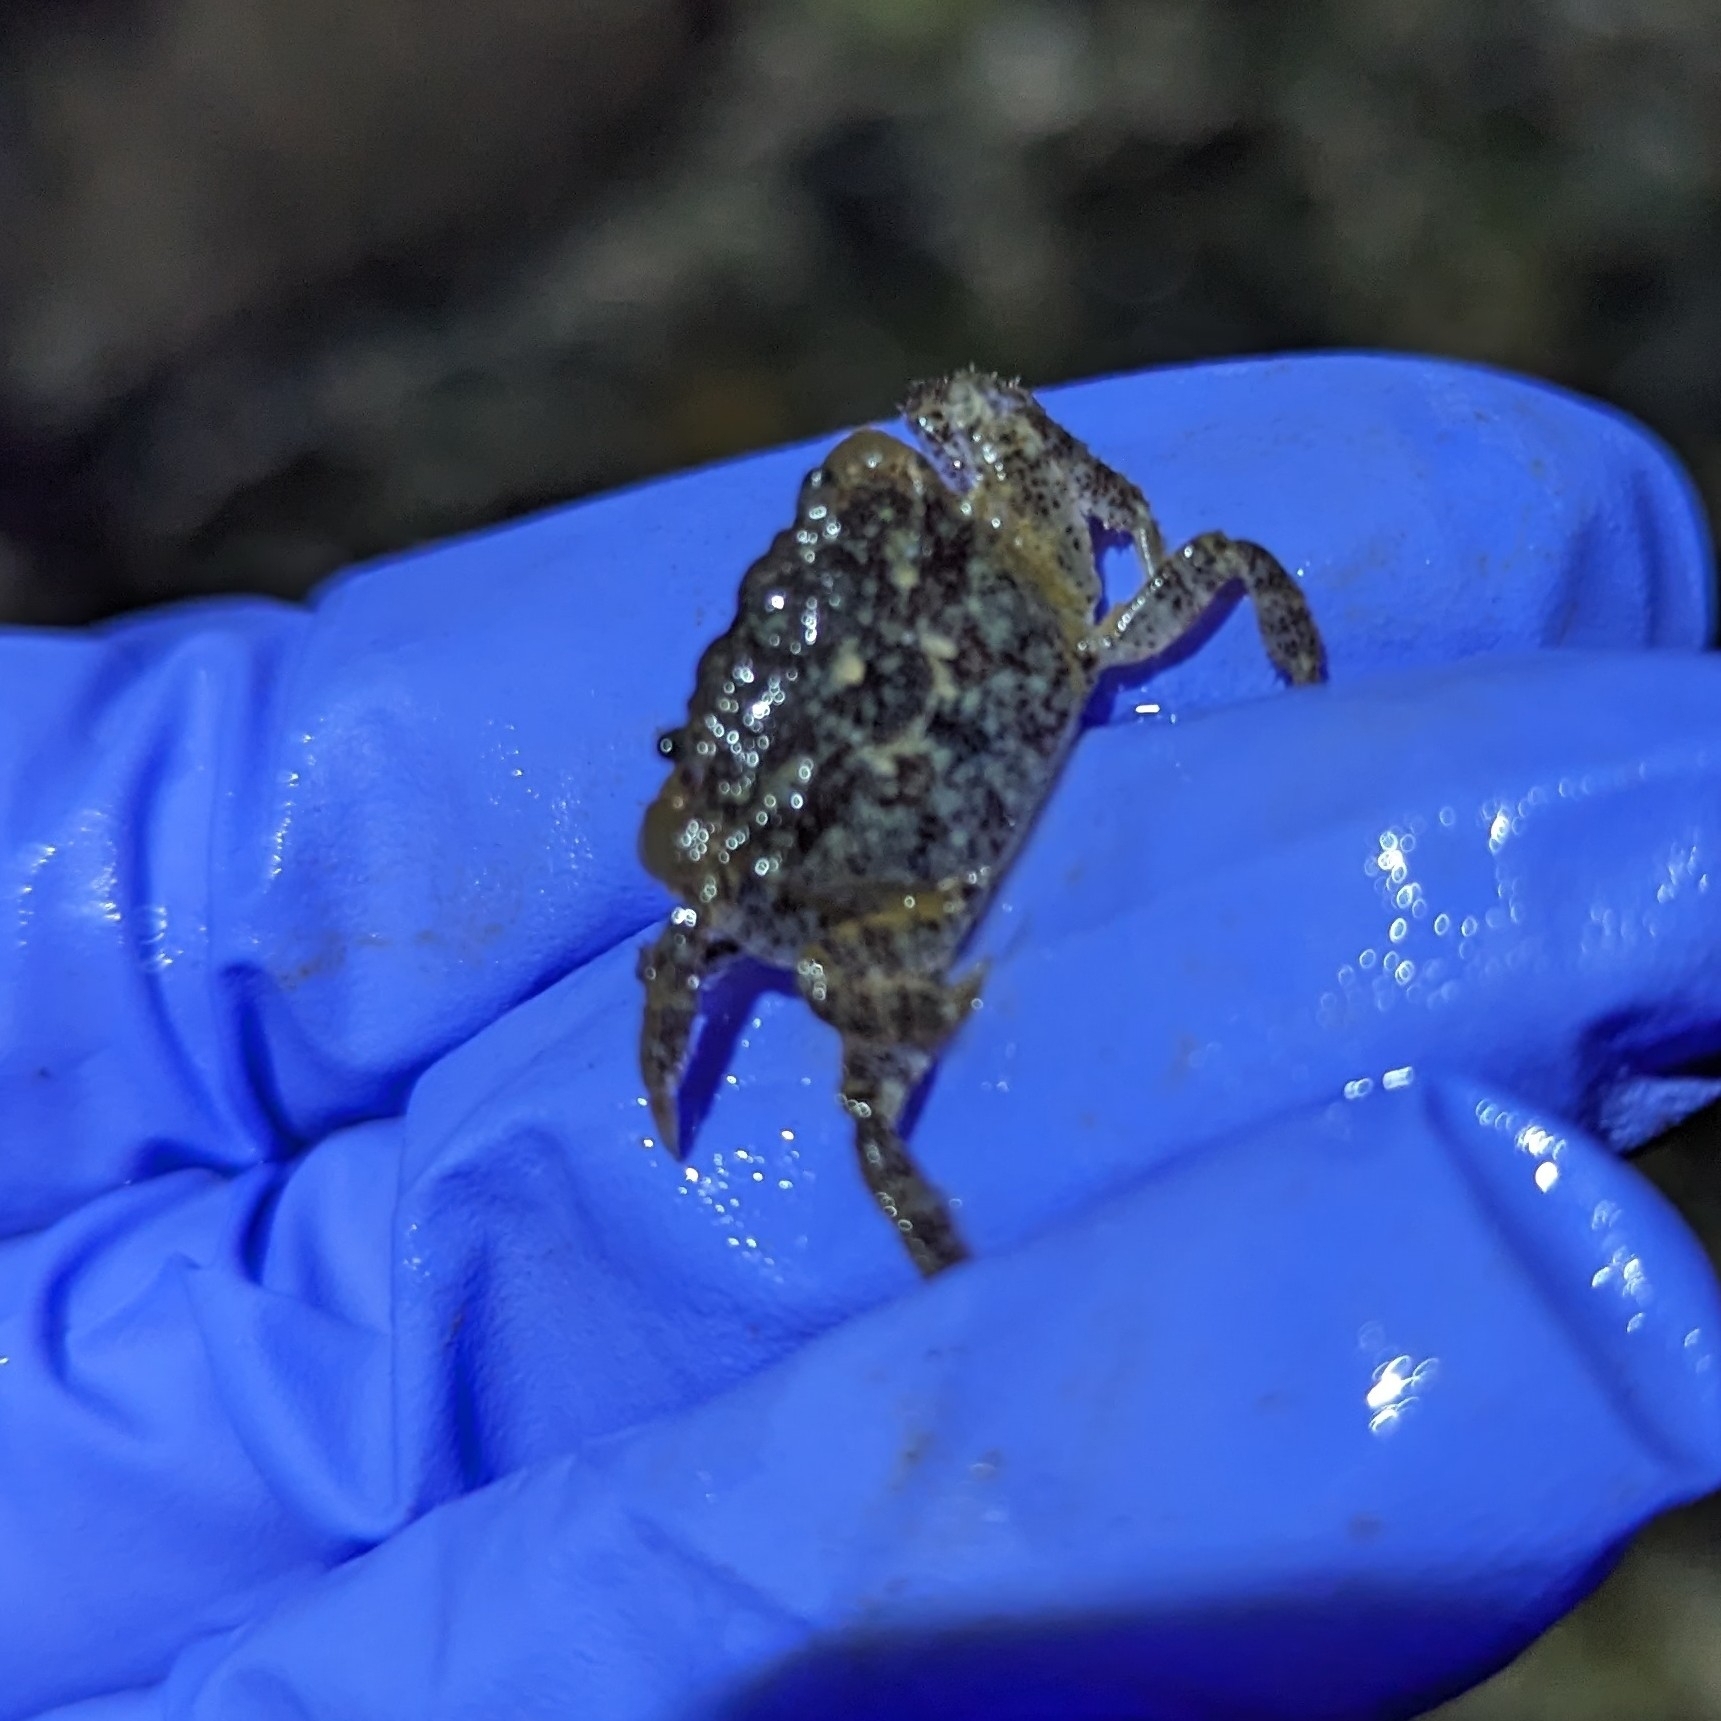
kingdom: Animalia
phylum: Arthropoda
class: Malacostraca
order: Decapoda
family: Varunidae
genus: Hemigrapsus
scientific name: Hemigrapsus oregonensis
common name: Yellow shore crab
